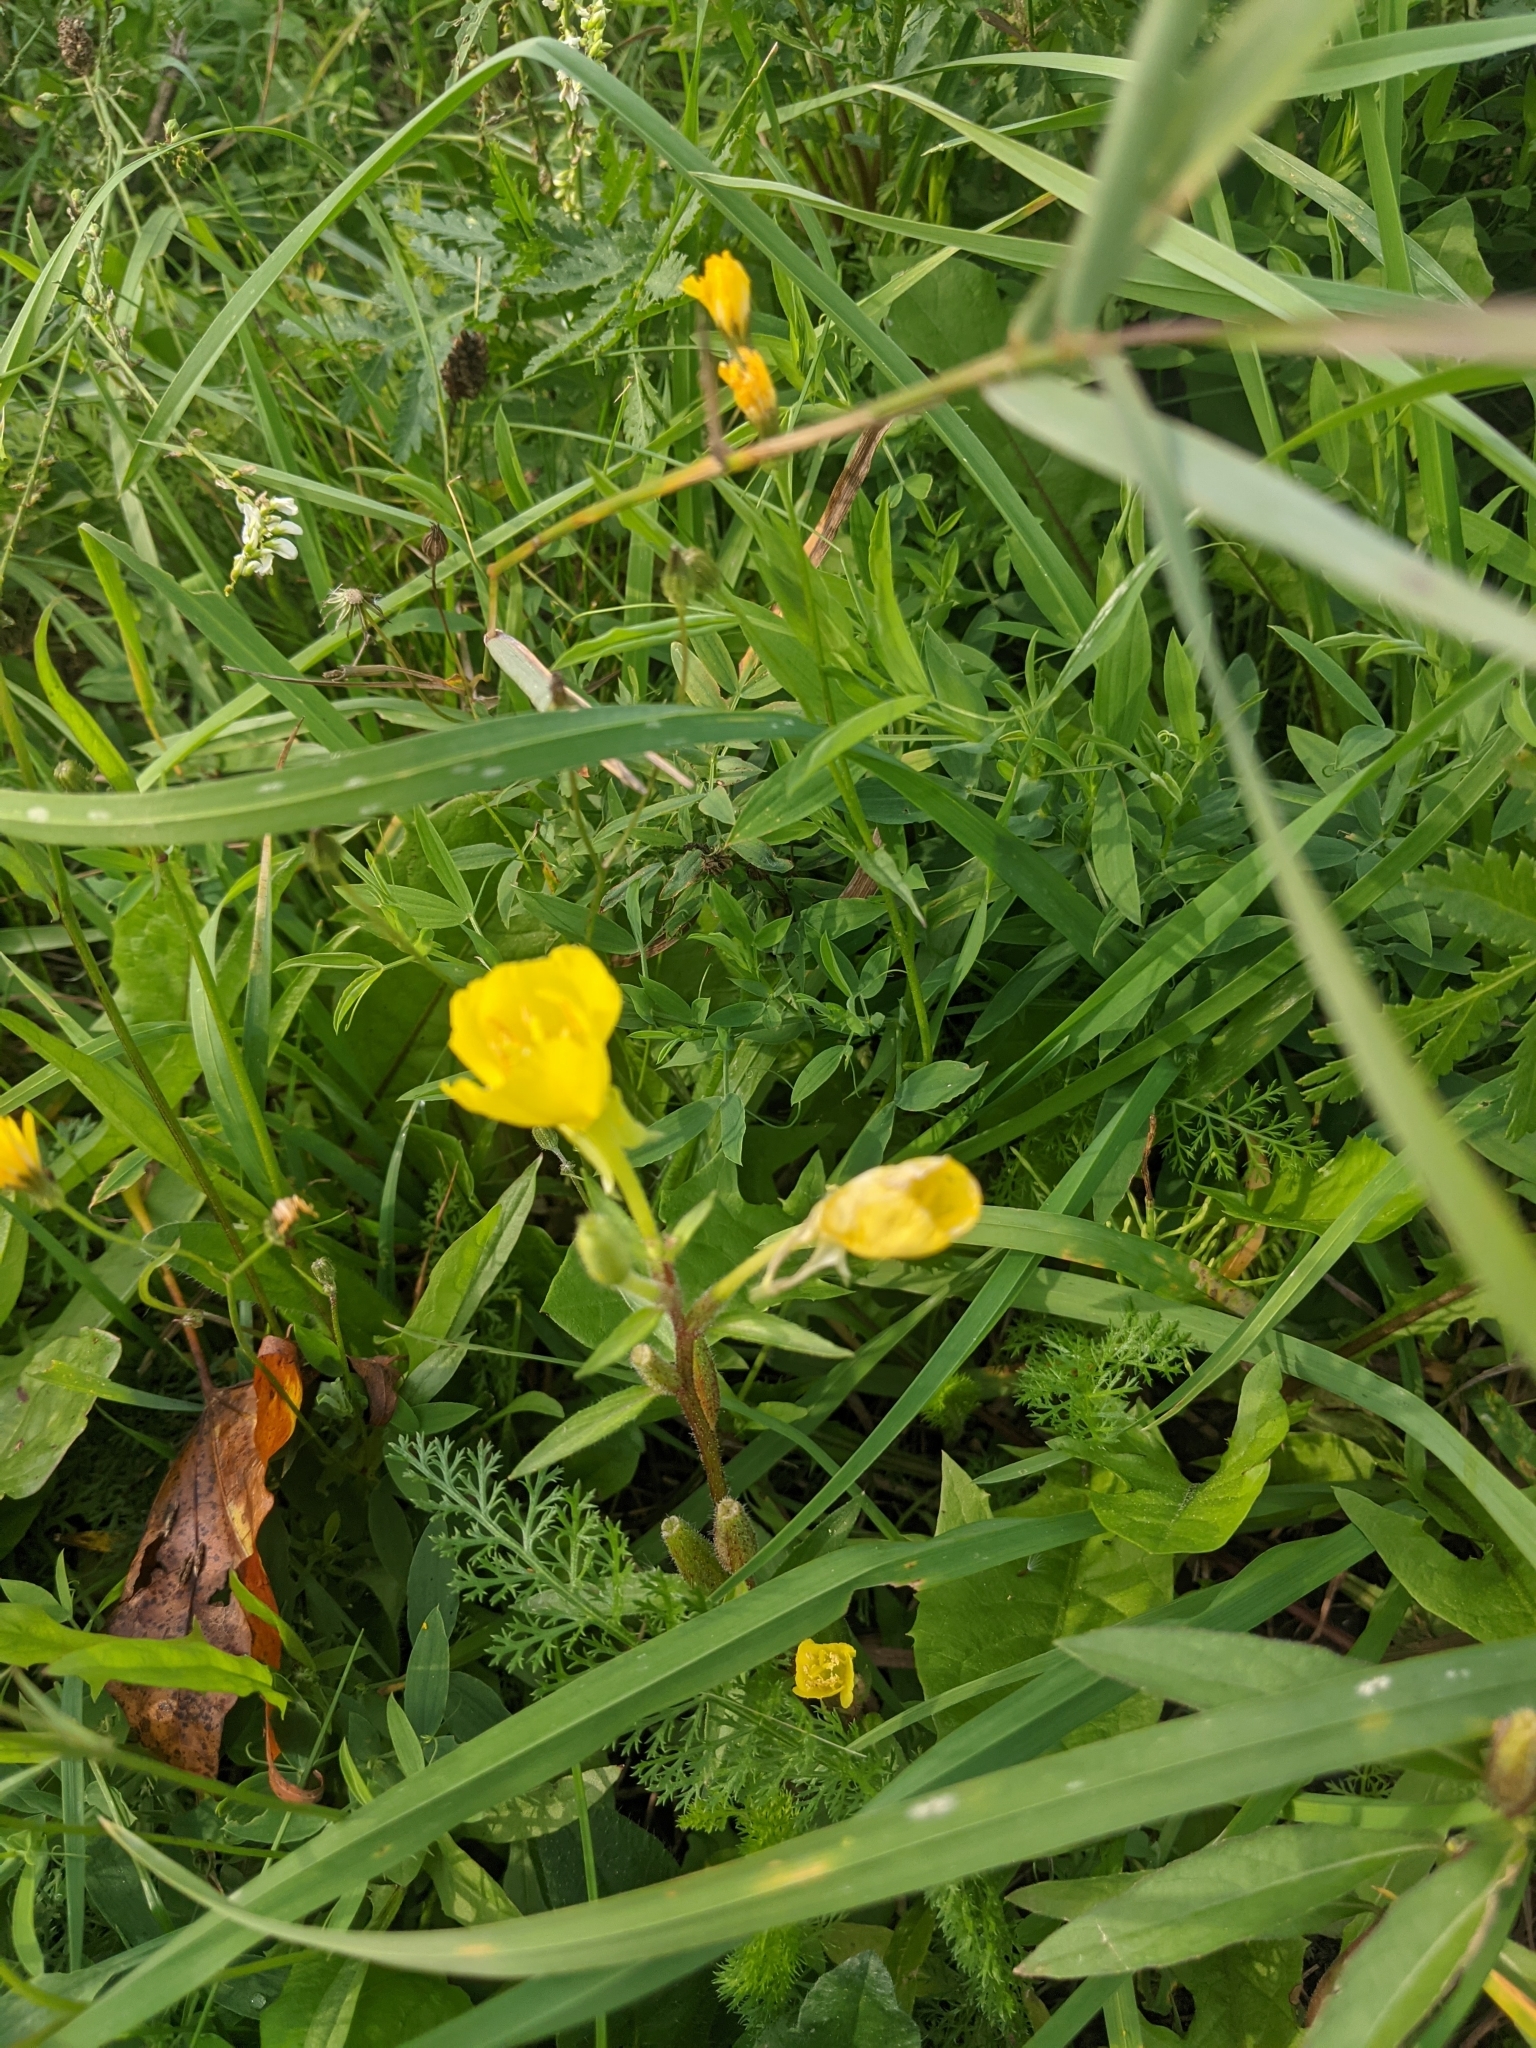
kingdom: Plantae
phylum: Tracheophyta
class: Magnoliopsida
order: Myrtales
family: Onagraceae
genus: Oenothera
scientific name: Oenothera biennis
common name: Common evening-primrose
